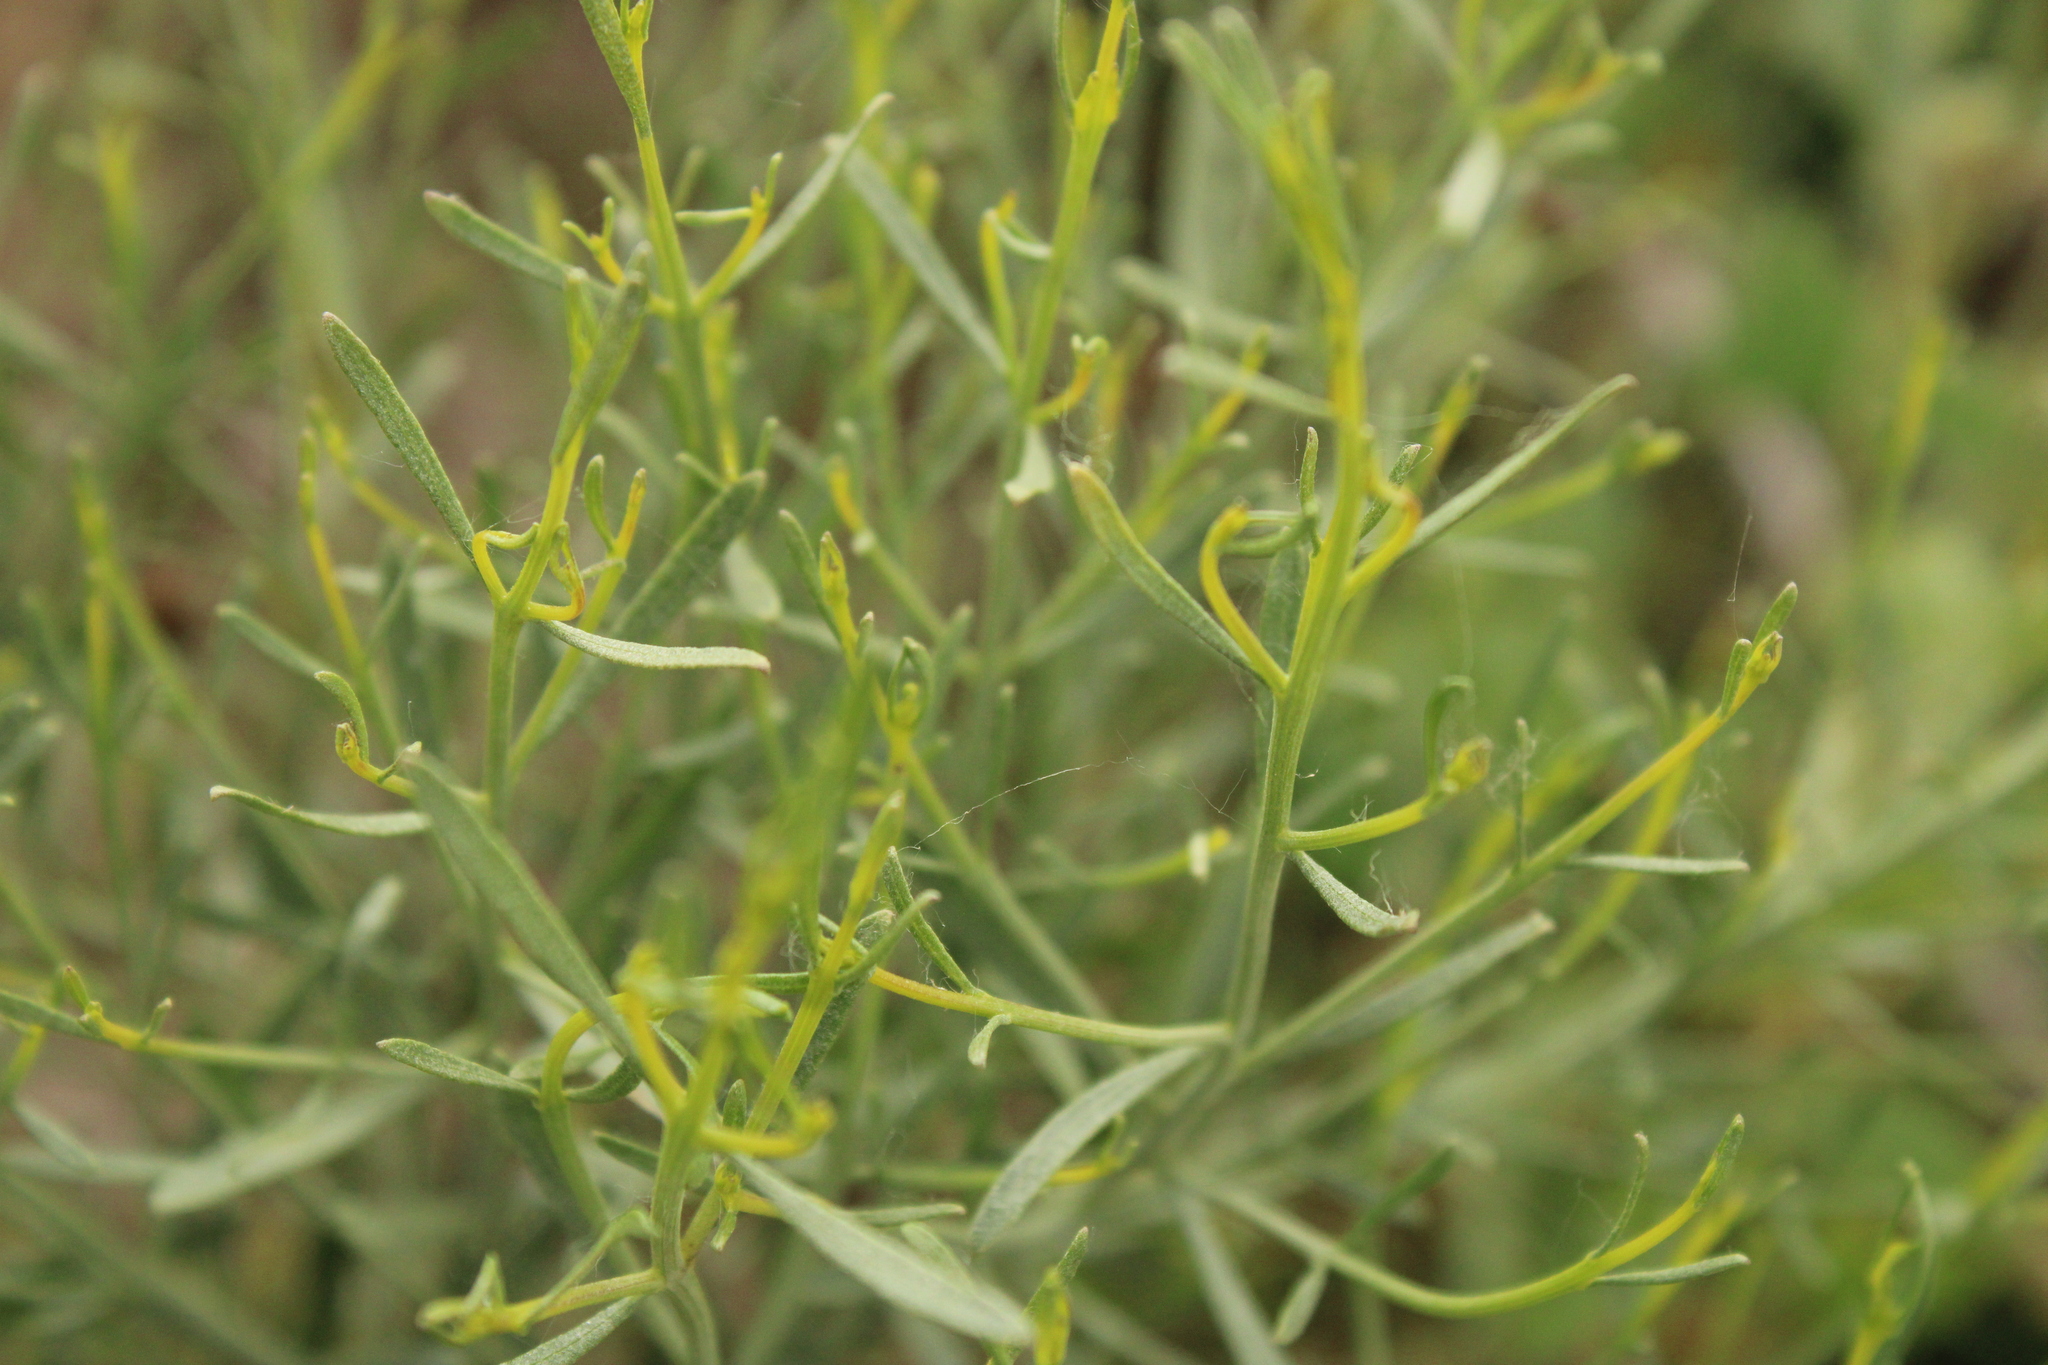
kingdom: Plantae
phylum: Tracheophyta
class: Magnoliopsida
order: Asterales
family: Asteraceae
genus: Baccharis
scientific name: Baccharis notosergila
